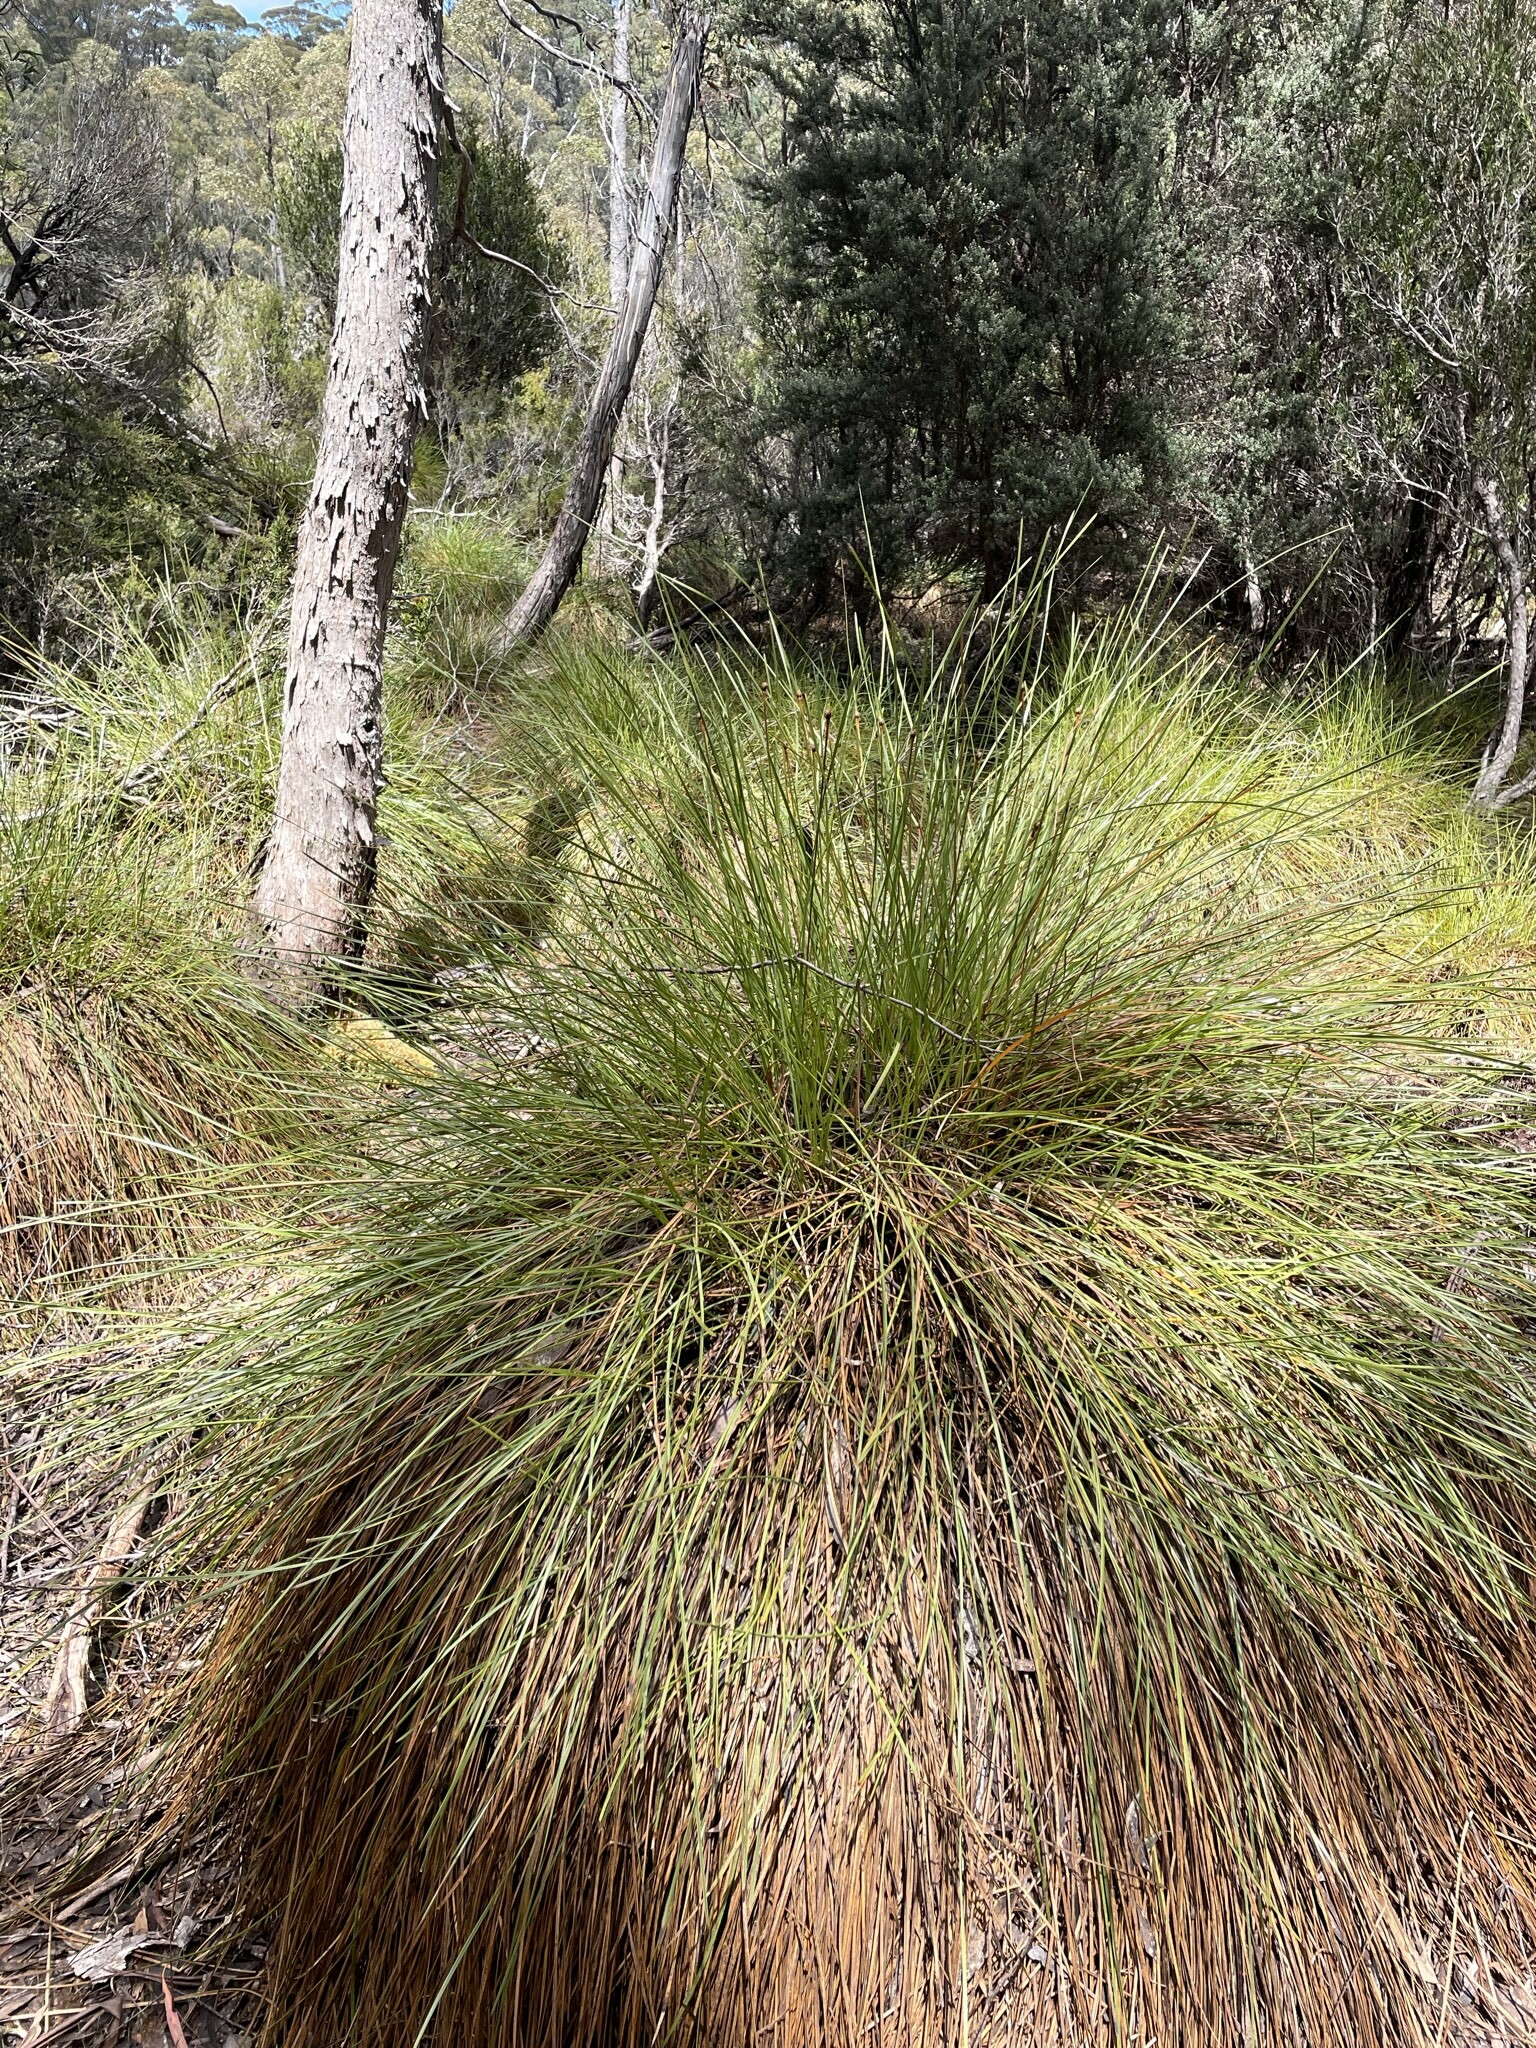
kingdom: Plantae
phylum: Tracheophyta
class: Liliopsida
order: Poales
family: Cyperaceae
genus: Gymnoschoenus
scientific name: Gymnoschoenus sphaerocephalus
